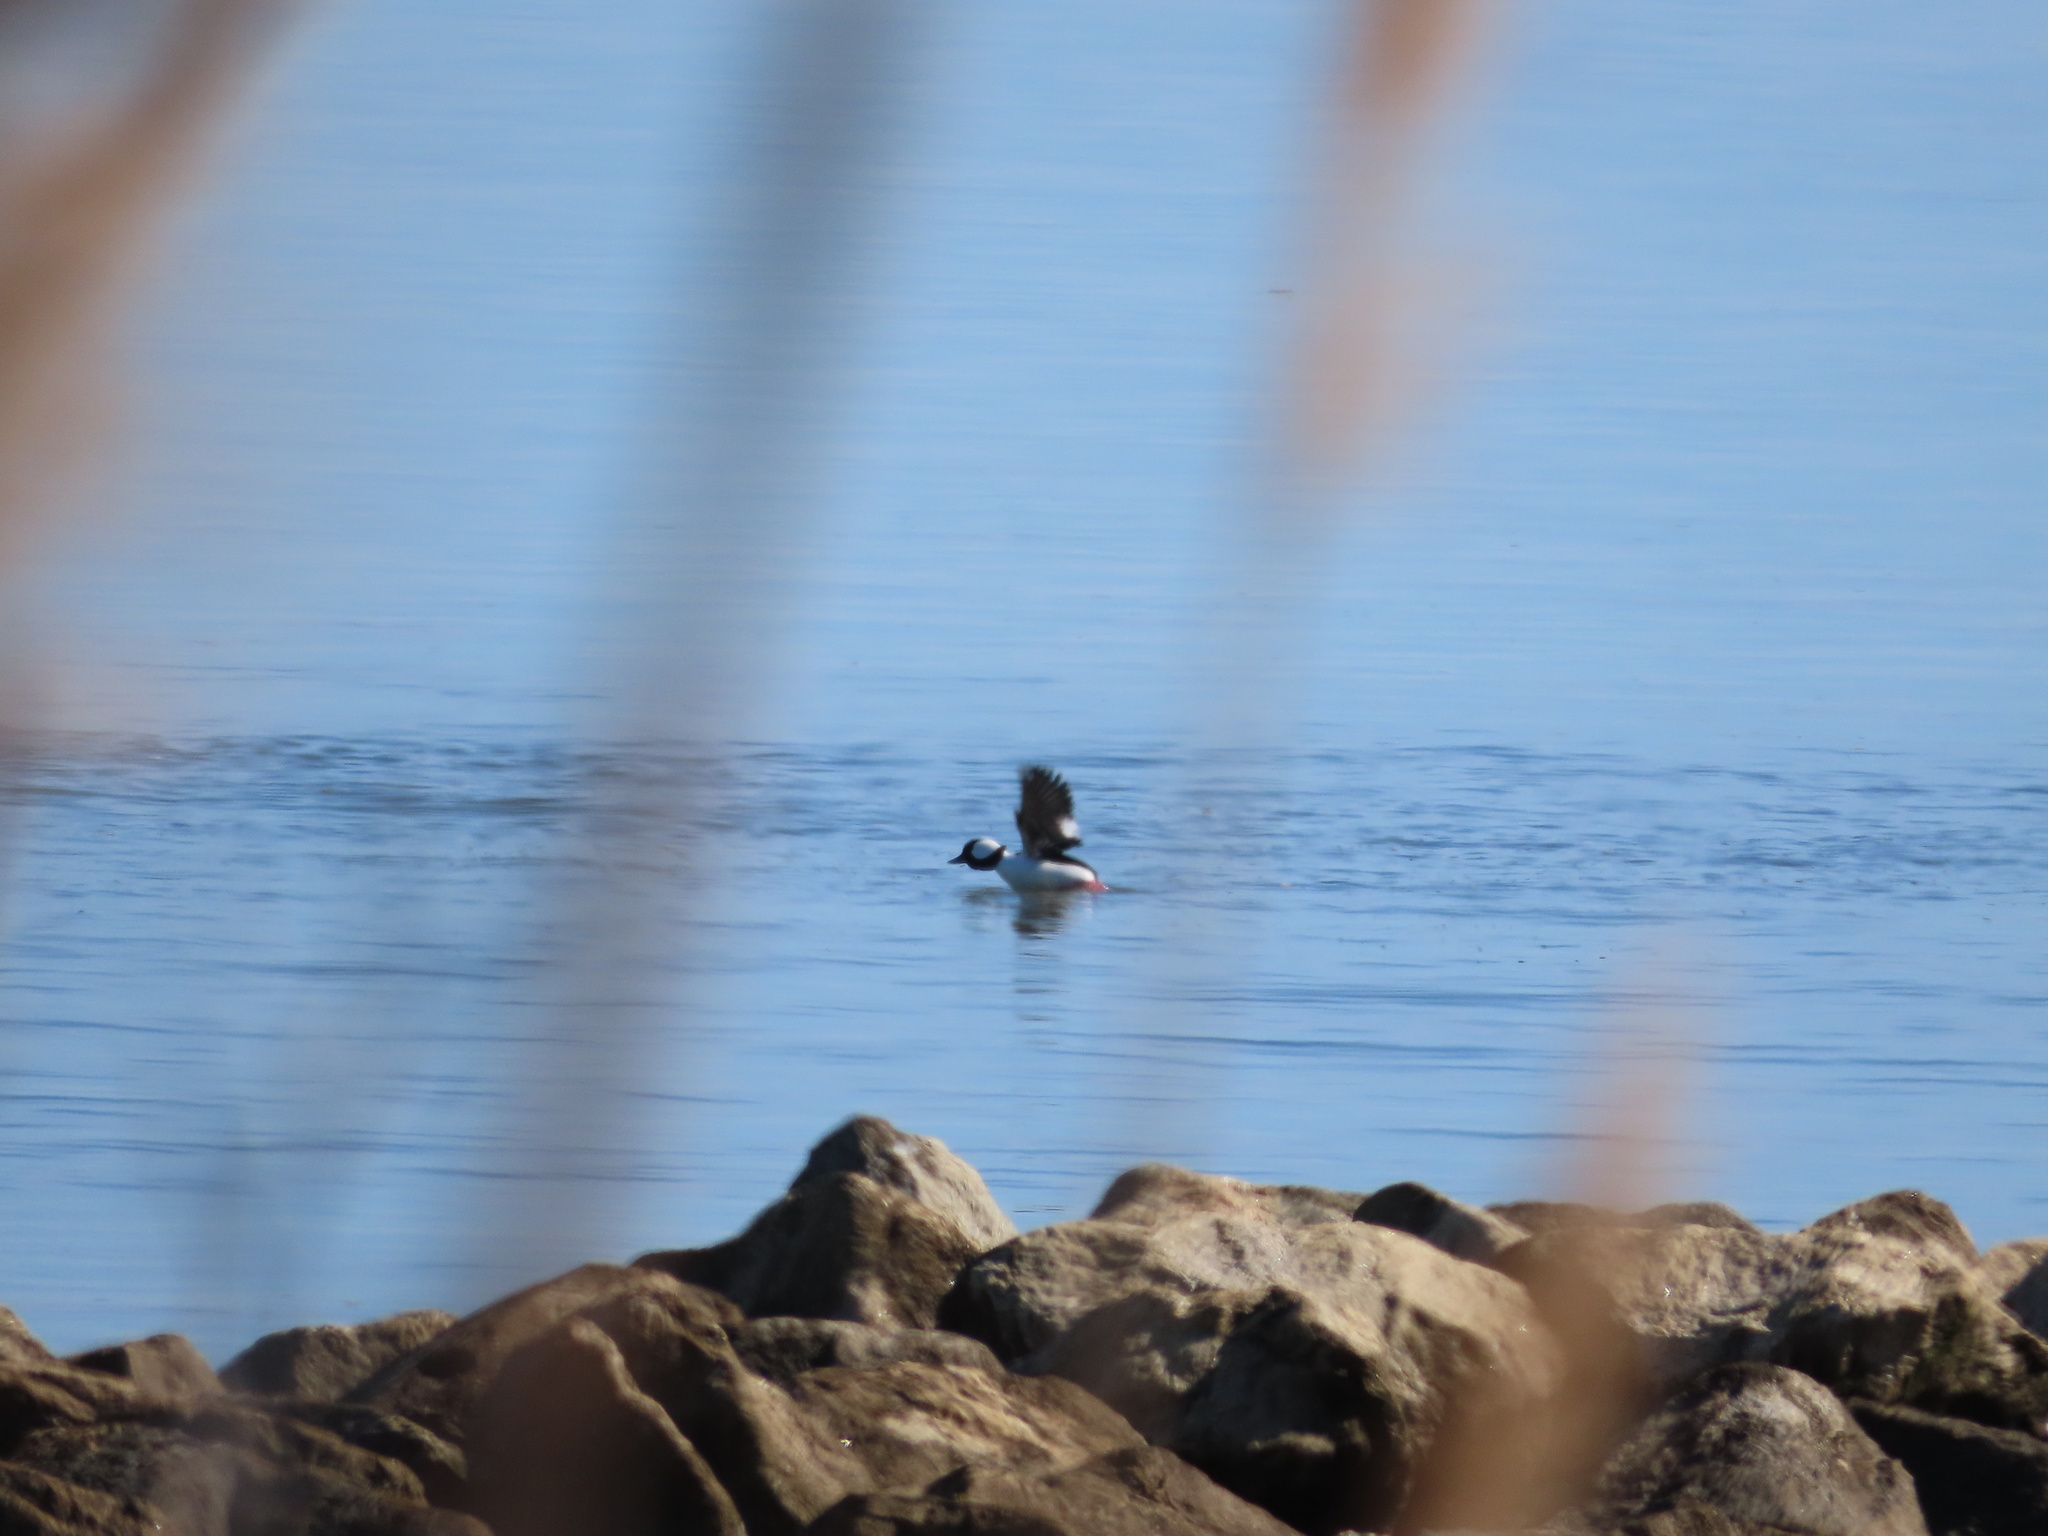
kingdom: Animalia
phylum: Chordata
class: Aves
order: Anseriformes
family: Anatidae
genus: Bucephala
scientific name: Bucephala albeola
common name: Bufflehead
